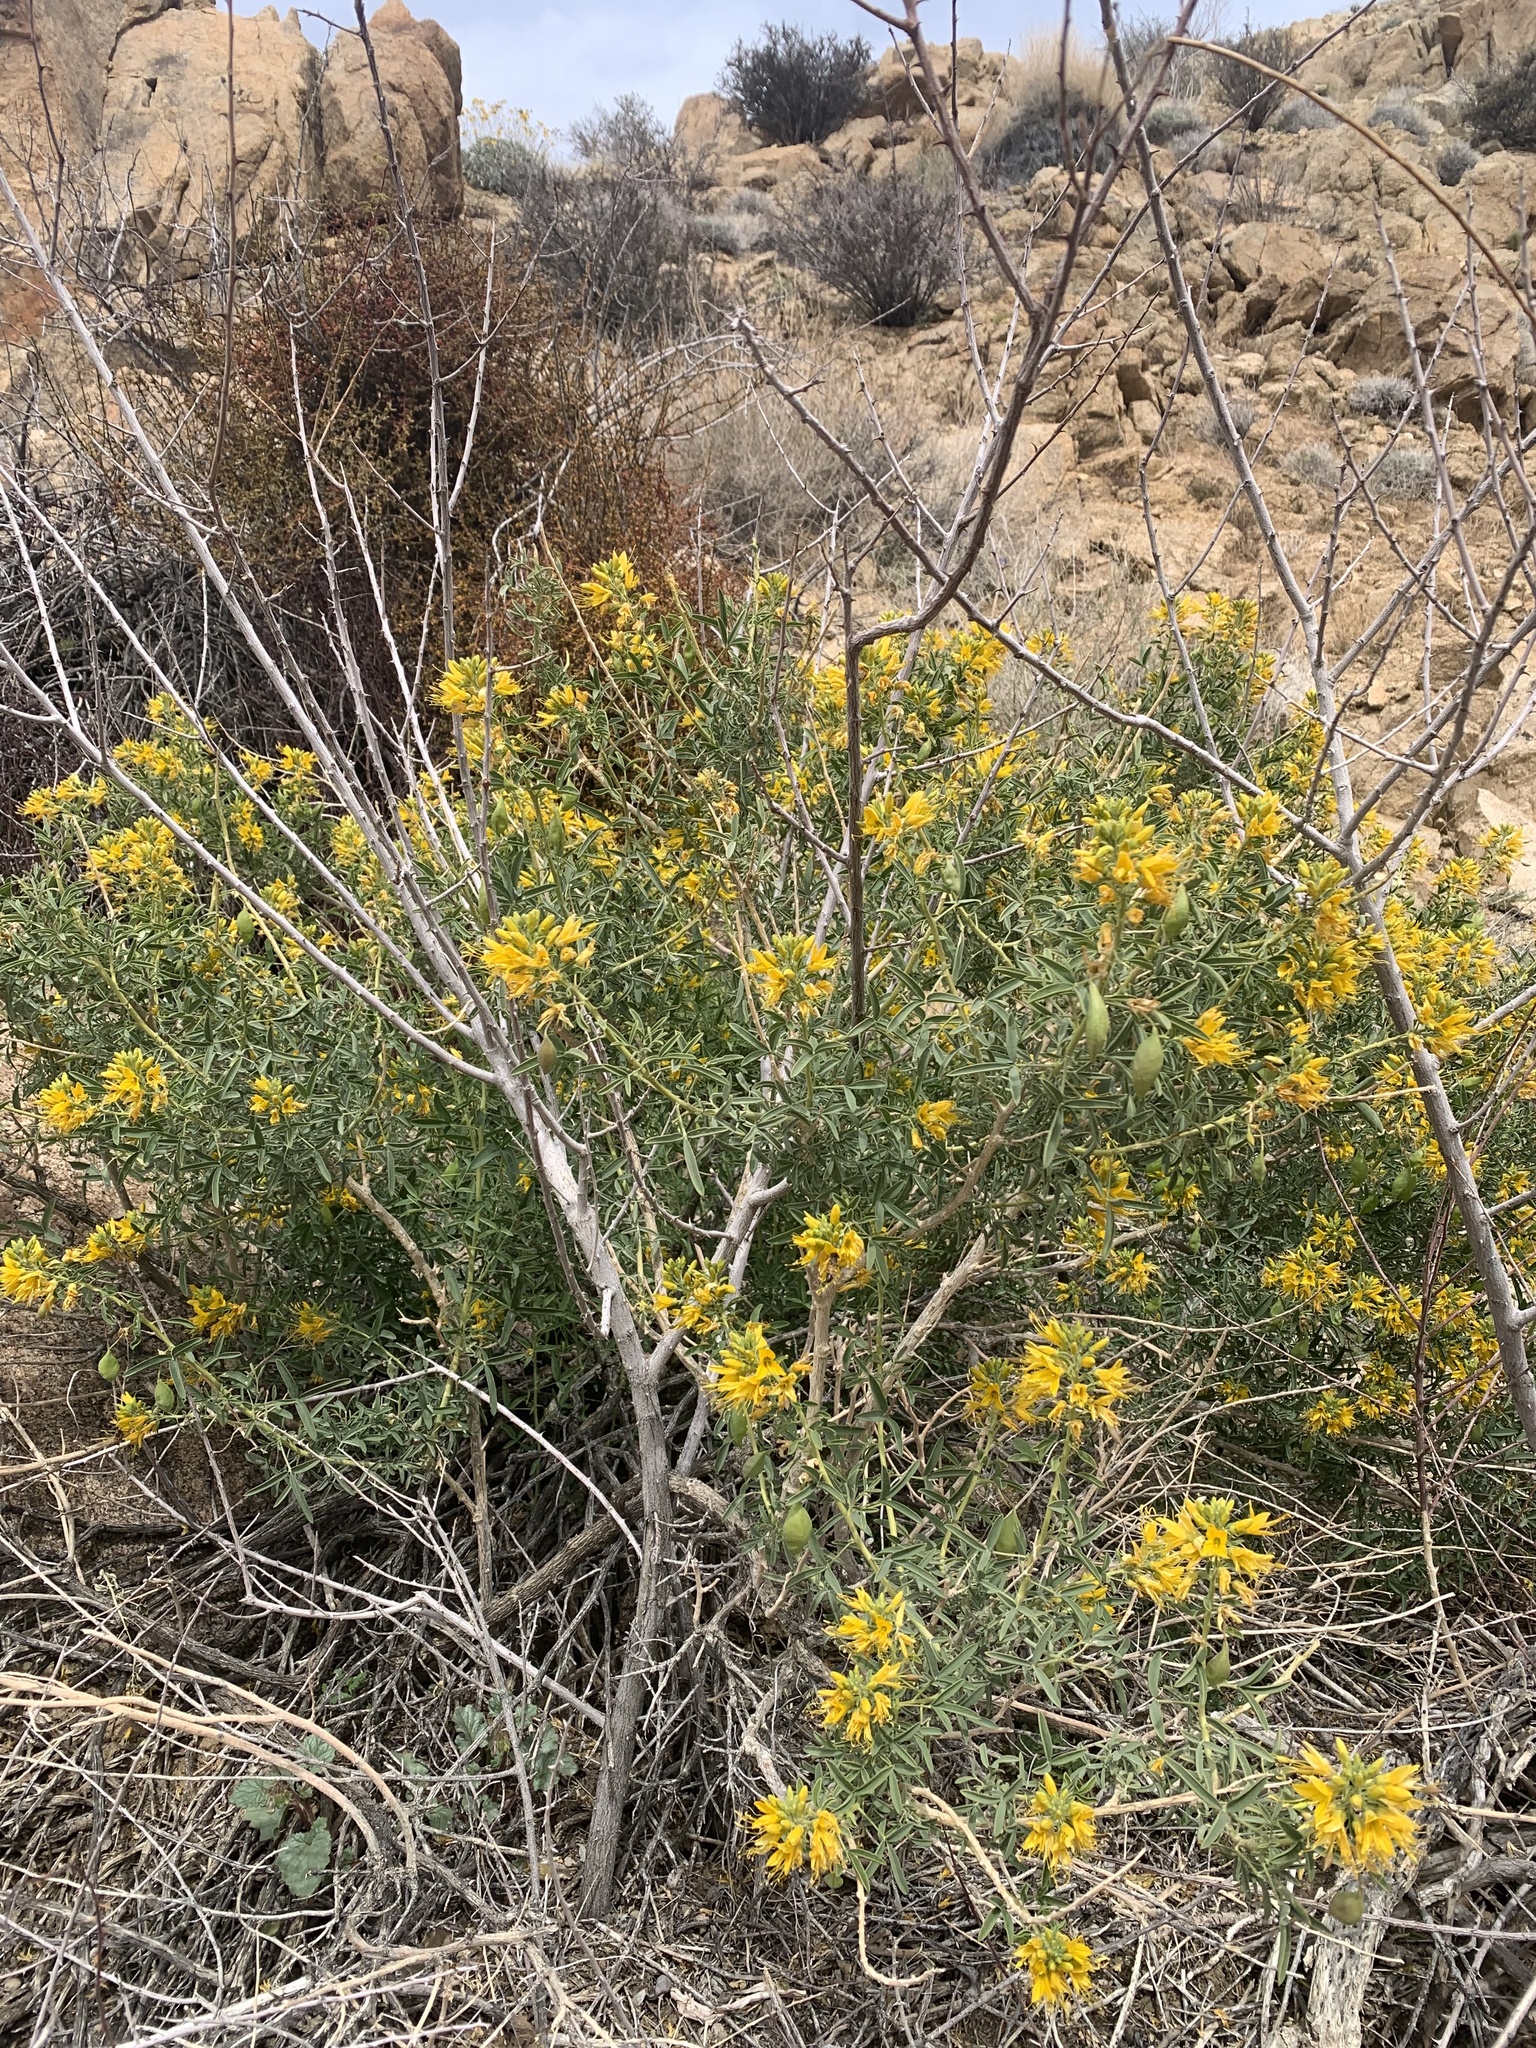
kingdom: Plantae
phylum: Tracheophyta
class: Magnoliopsida
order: Brassicales
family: Cleomaceae
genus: Cleomella
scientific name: Cleomella arborea
